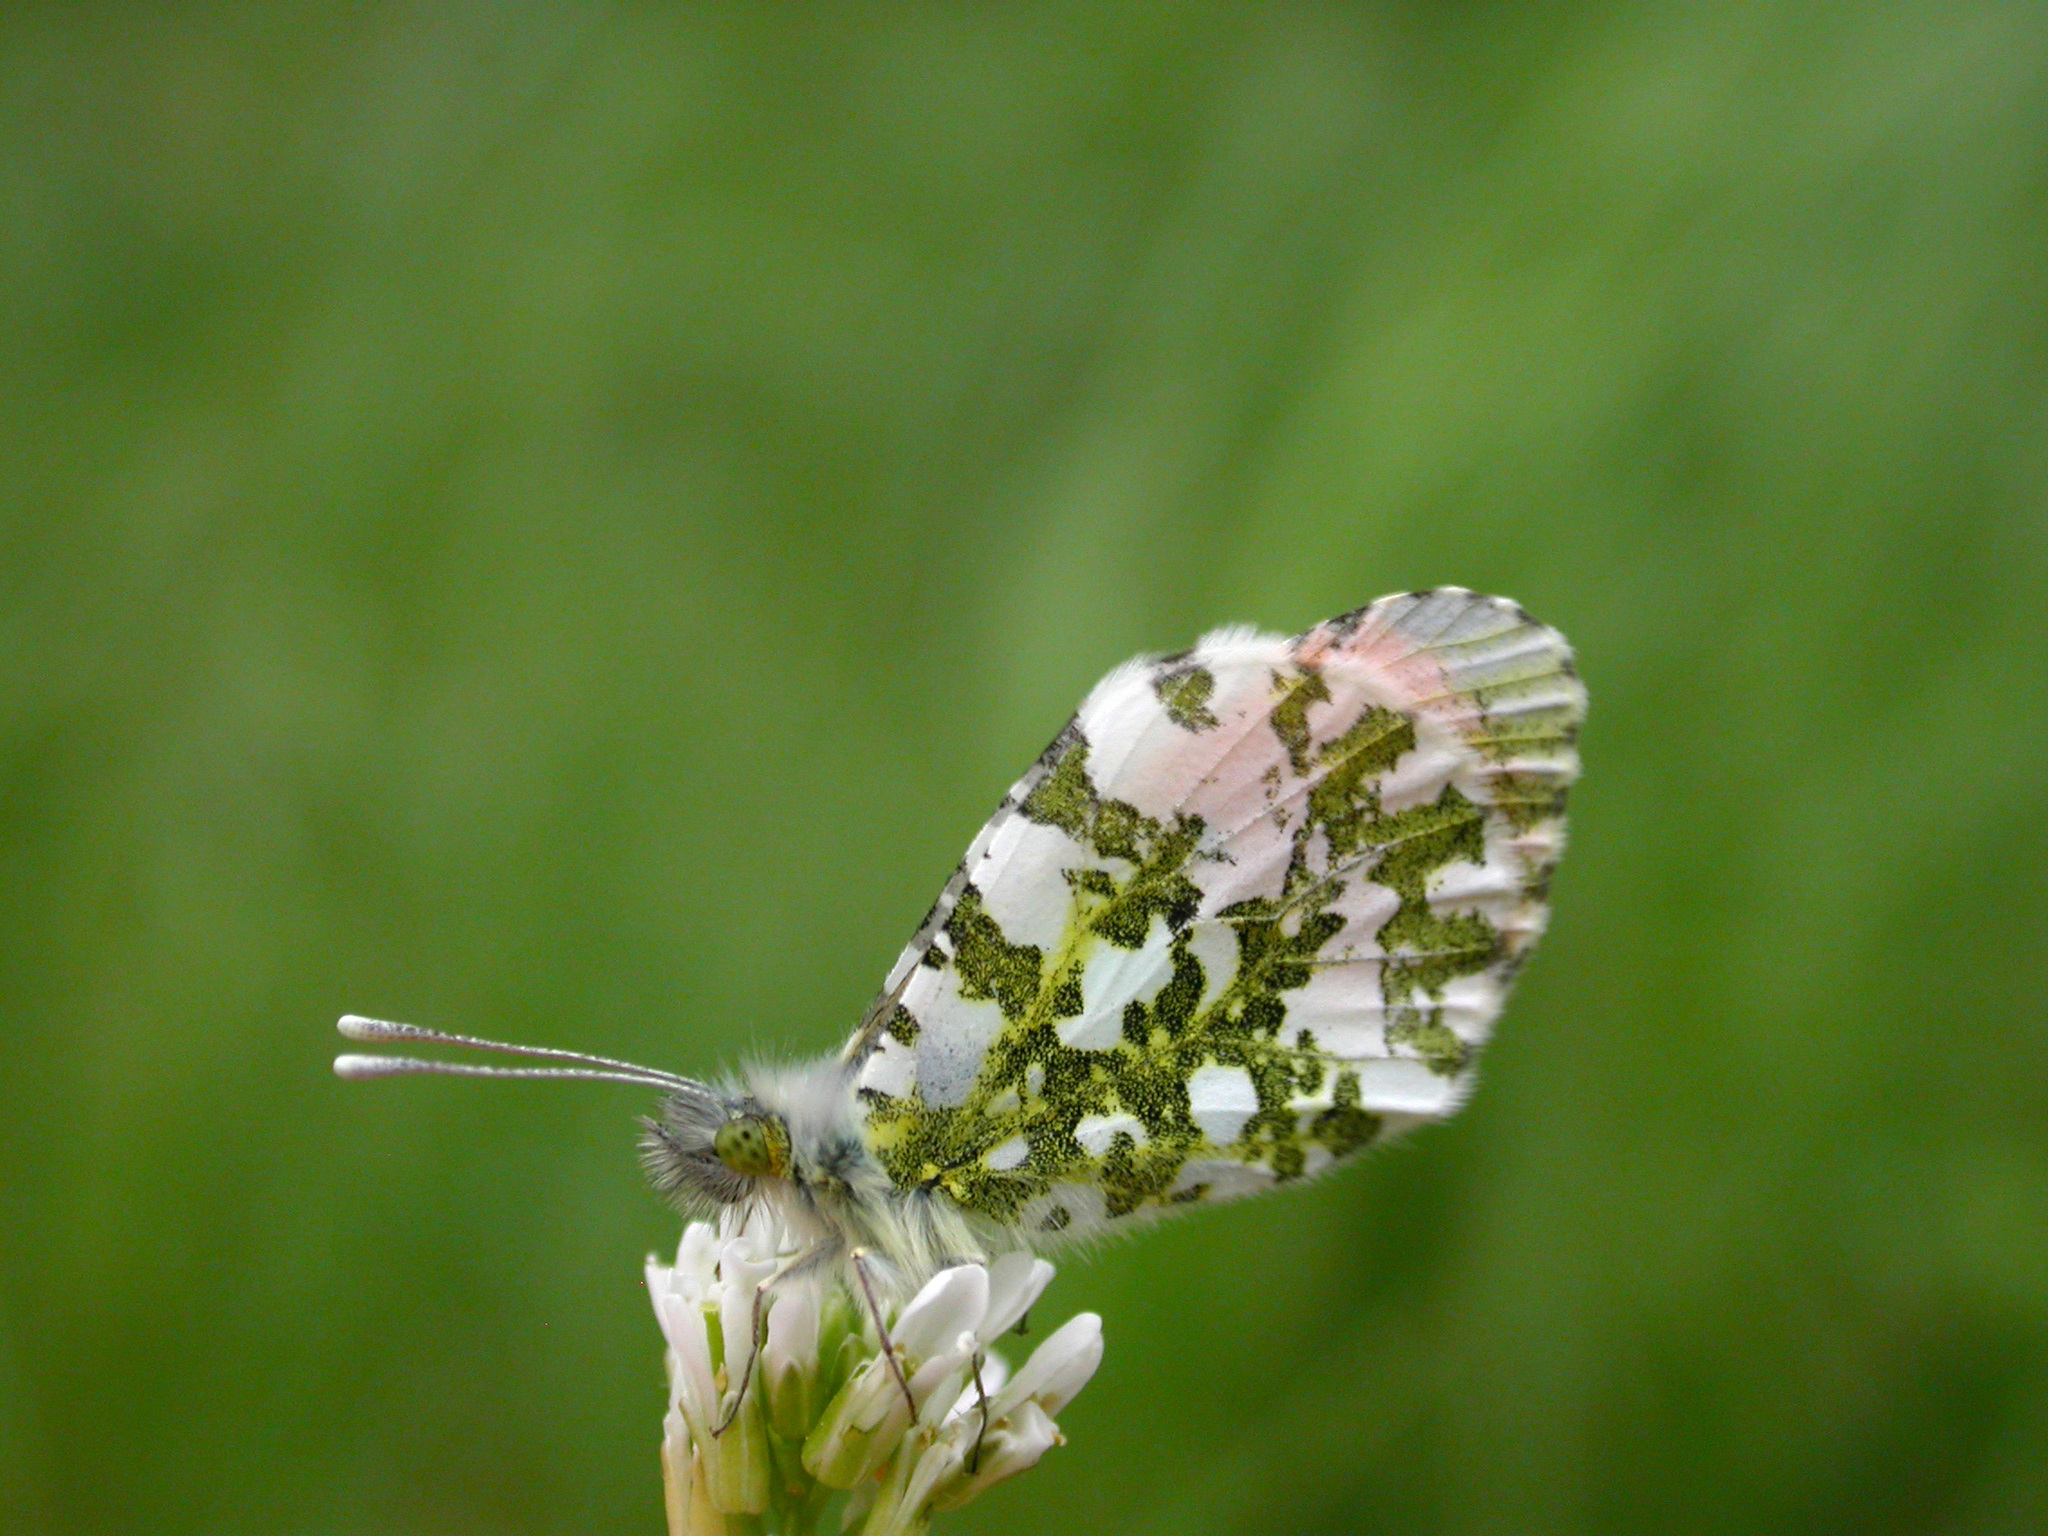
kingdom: Animalia
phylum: Arthropoda
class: Insecta
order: Lepidoptera
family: Pieridae
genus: Anthocharis
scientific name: Anthocharis cardamines
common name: Orange-tip
